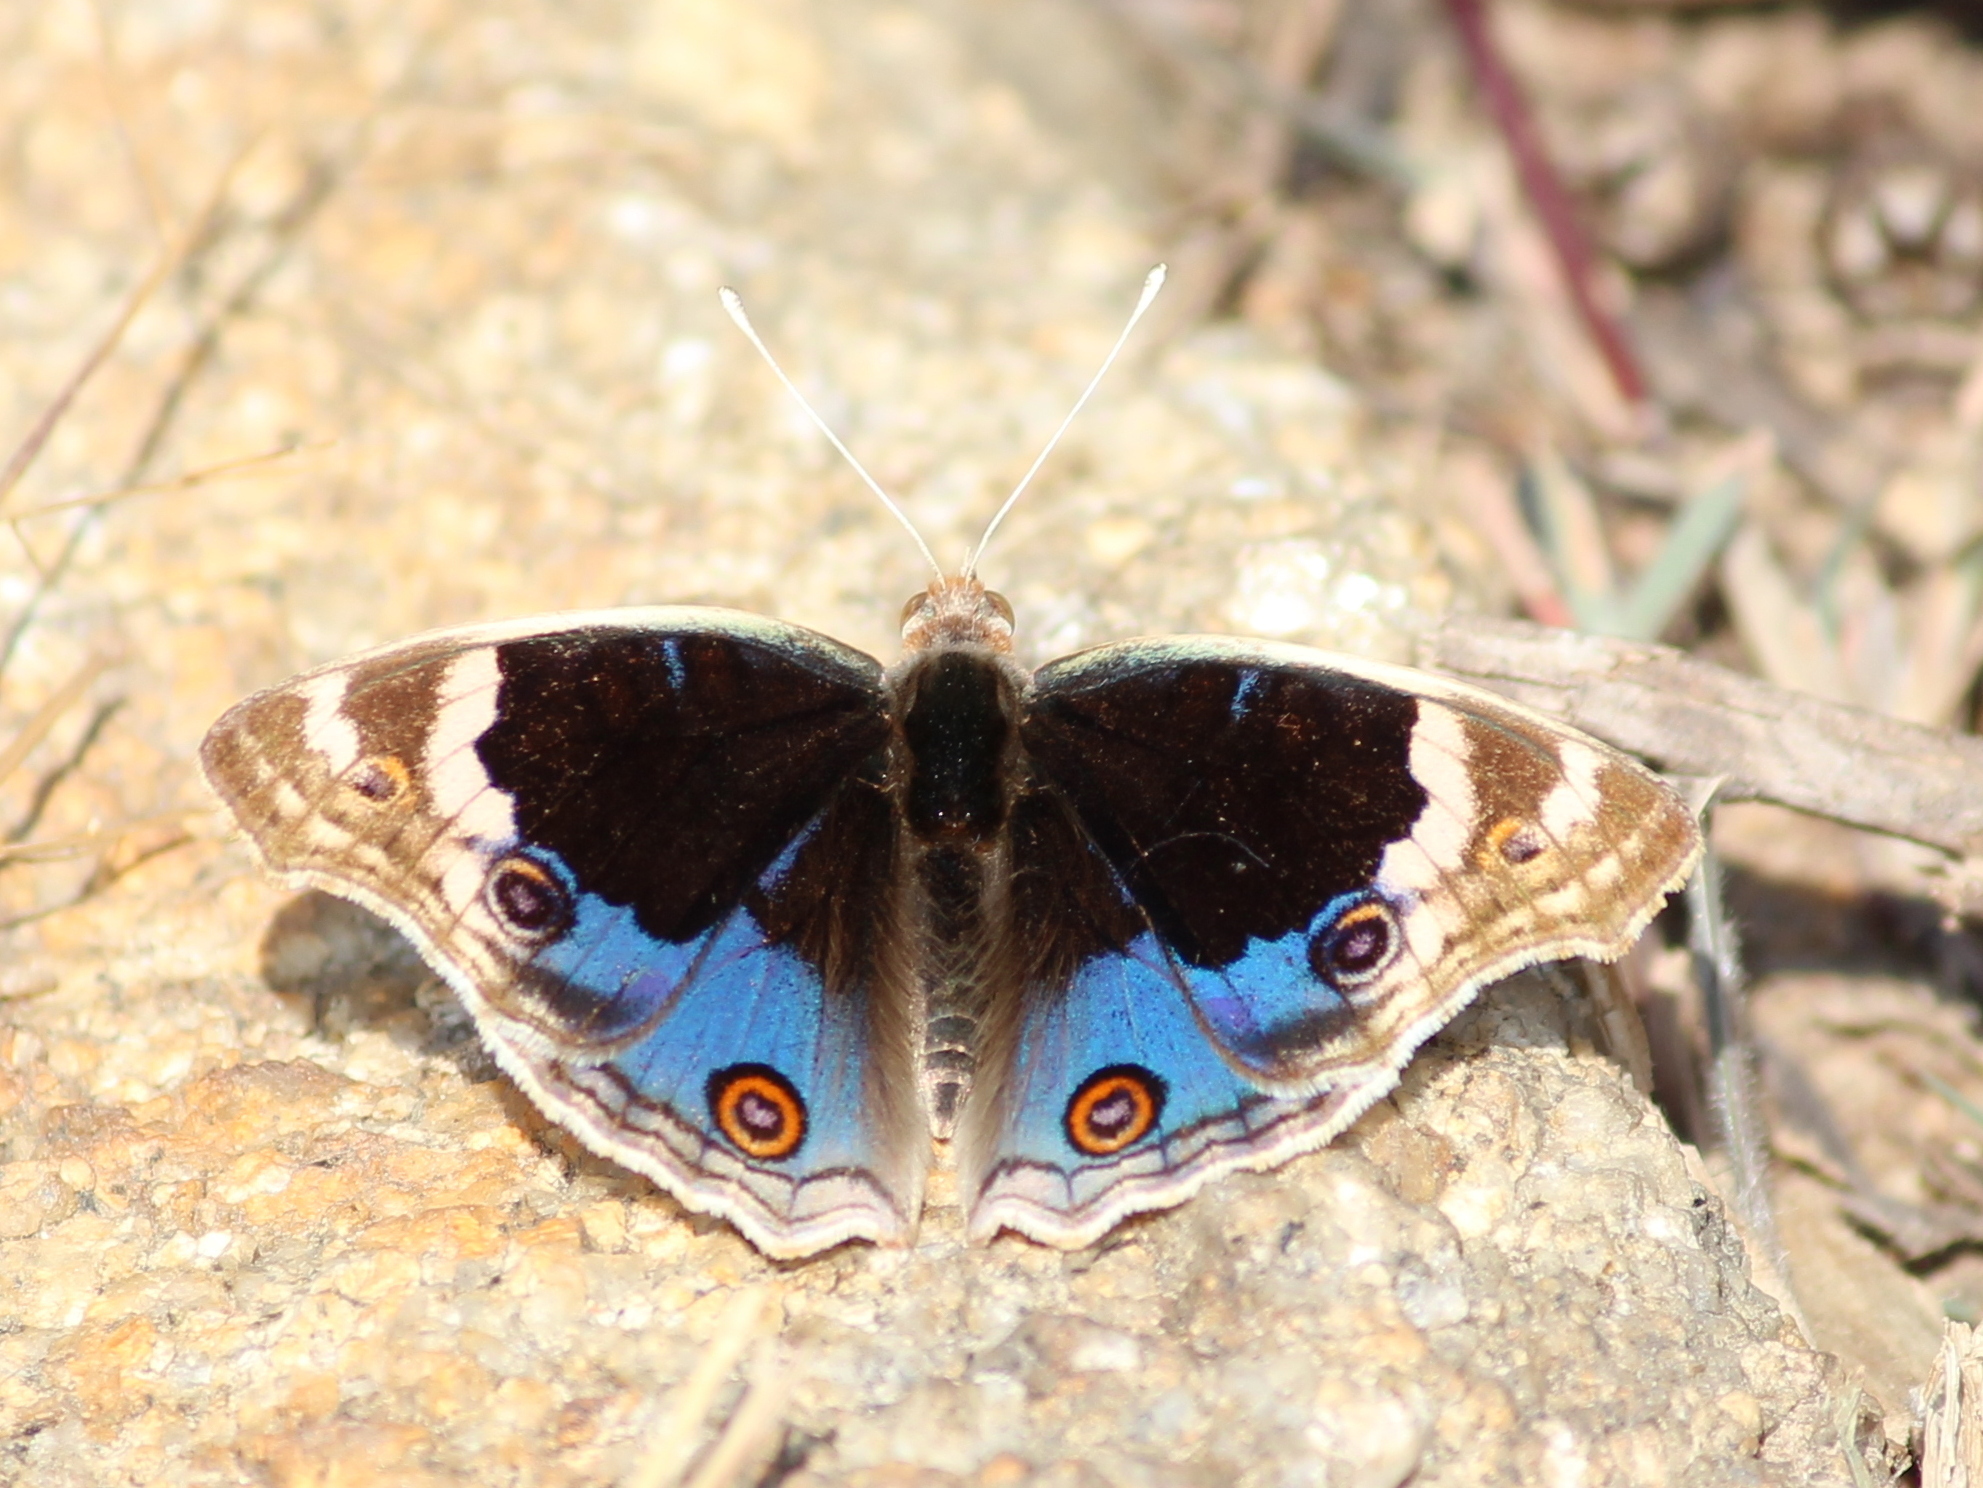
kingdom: Animalia
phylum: Arthropoda
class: Insecta
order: Lepidoptera
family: Nymphalidae
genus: Junonia
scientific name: Junonia orithya
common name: Blue pansy
